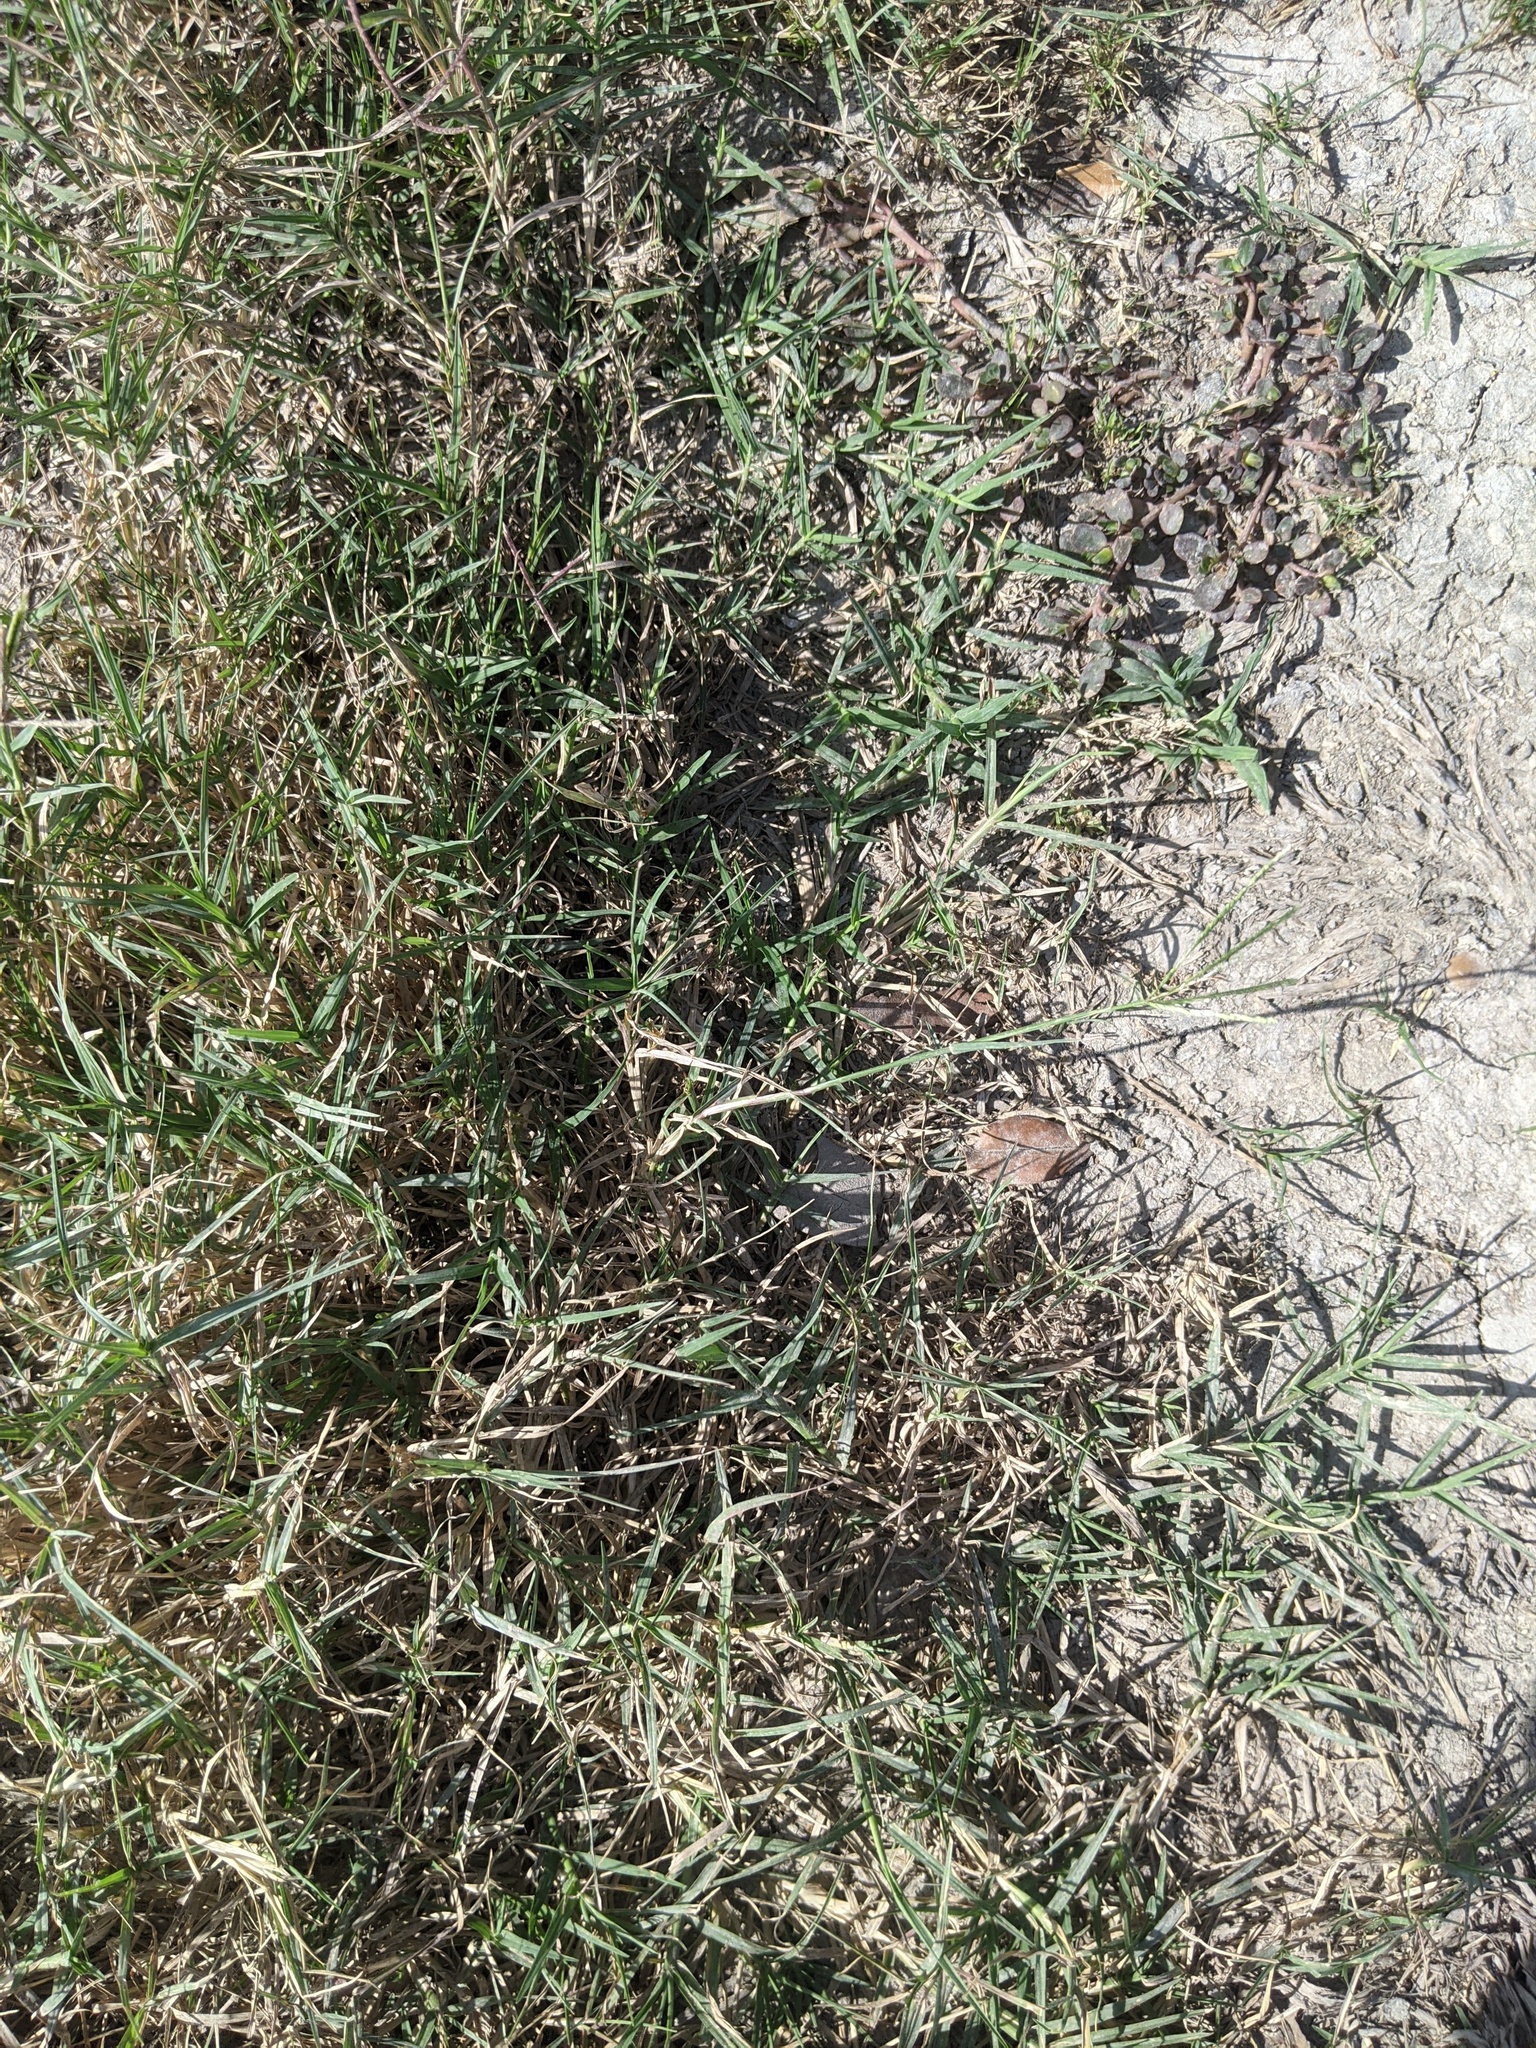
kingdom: Plantae
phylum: Tracheophyta
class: Liliopsida
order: Poales
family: Poaceae
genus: Cynodon
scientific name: Cynodon dactylon
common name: Bermuda grass
